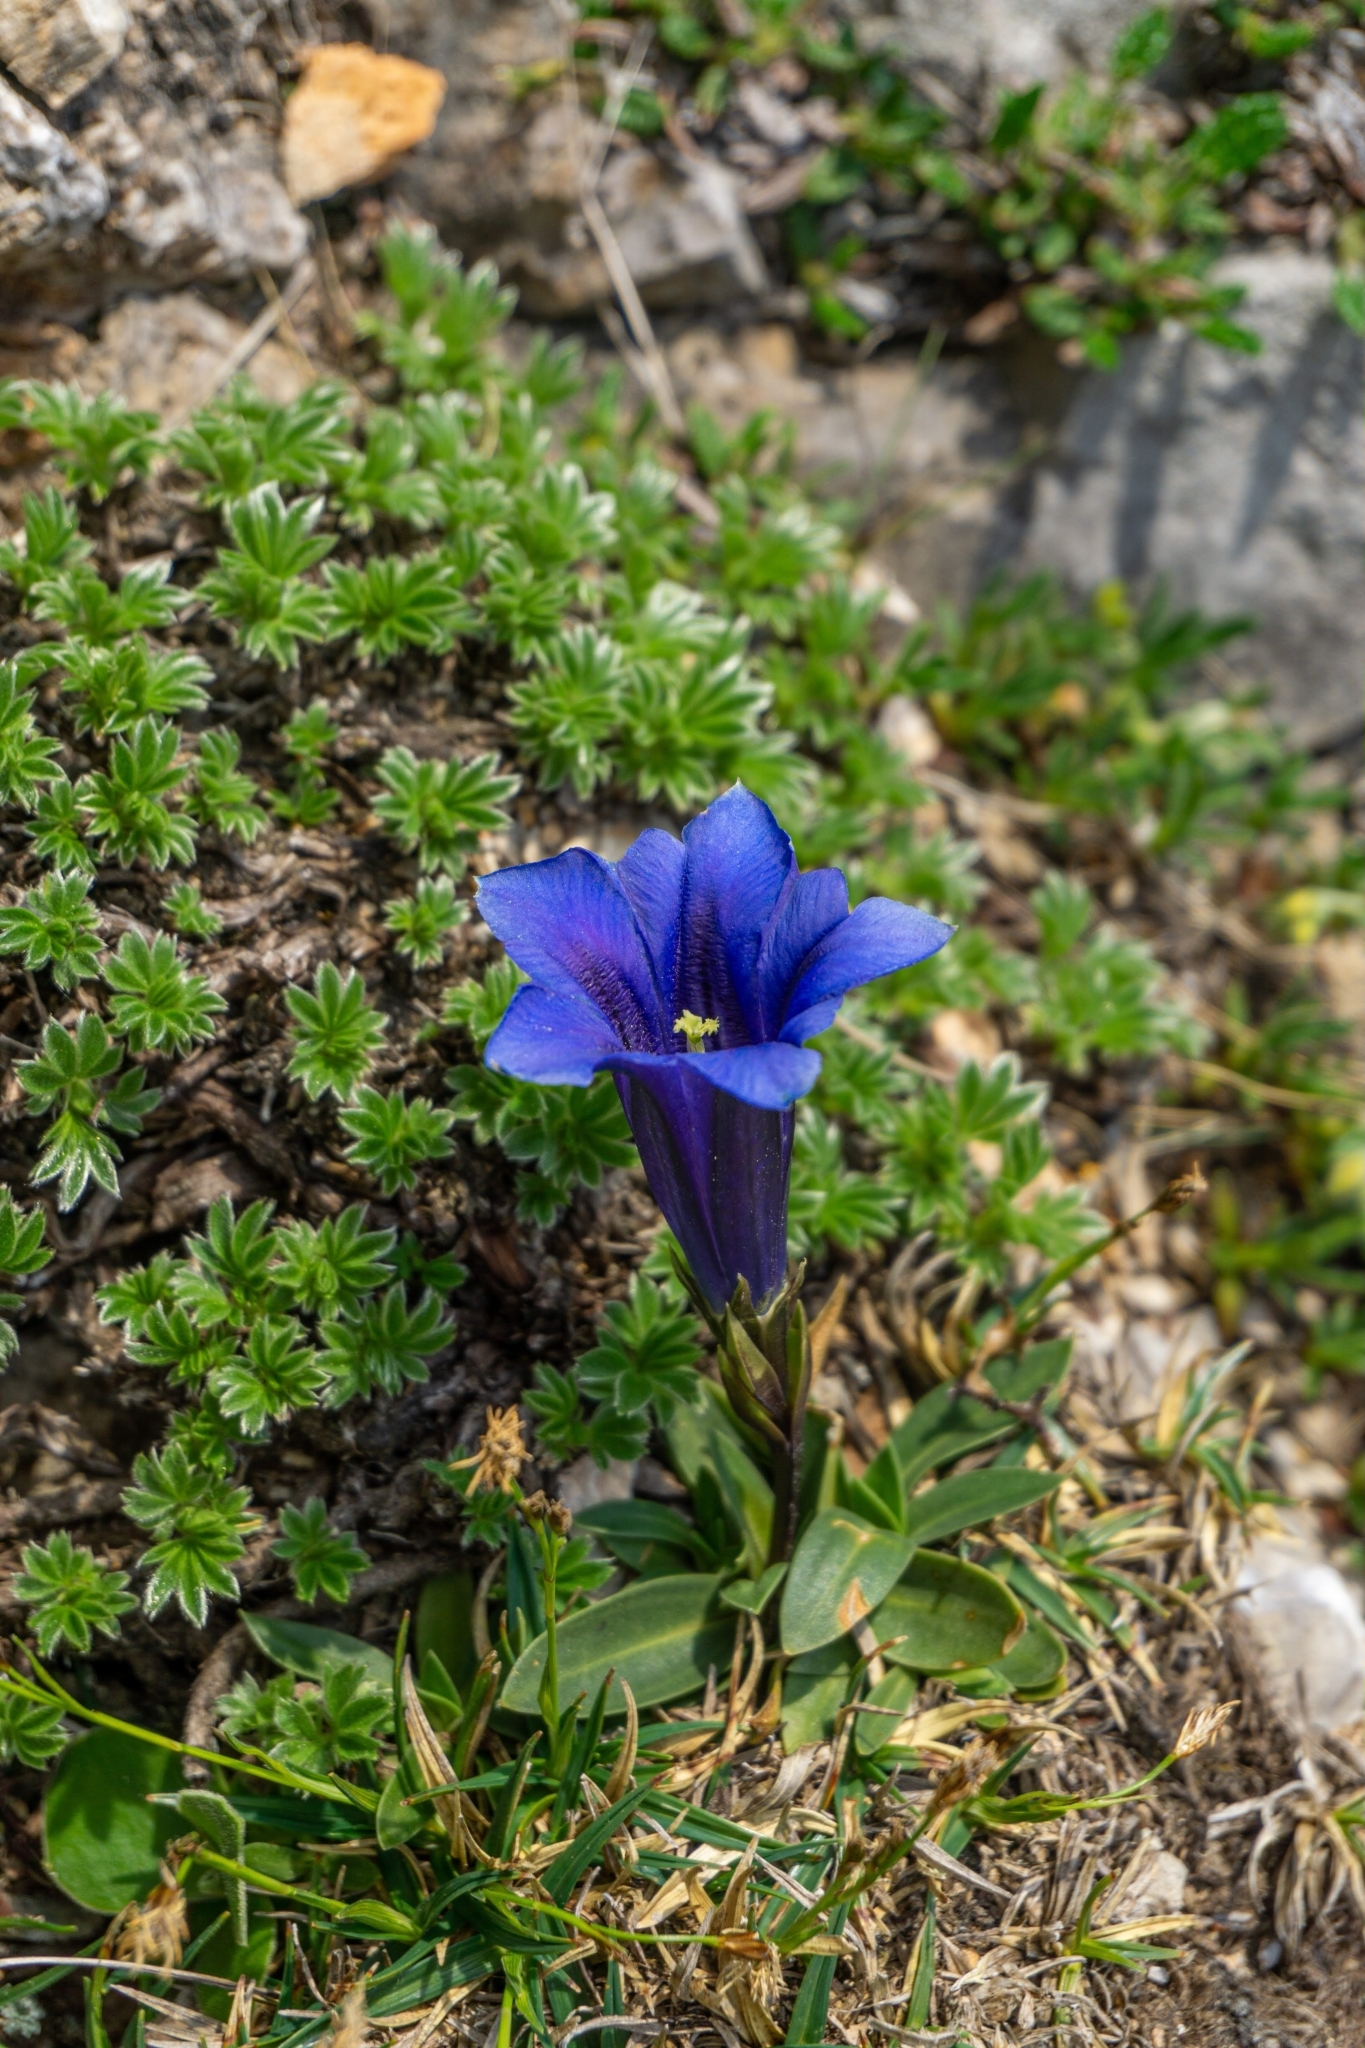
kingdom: Plantae
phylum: Tracheophyta
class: Magnoliopsida
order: Gentianales
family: Gentianaceae
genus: Gentiana
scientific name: Gentiana clusii
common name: Trumpet gentian
